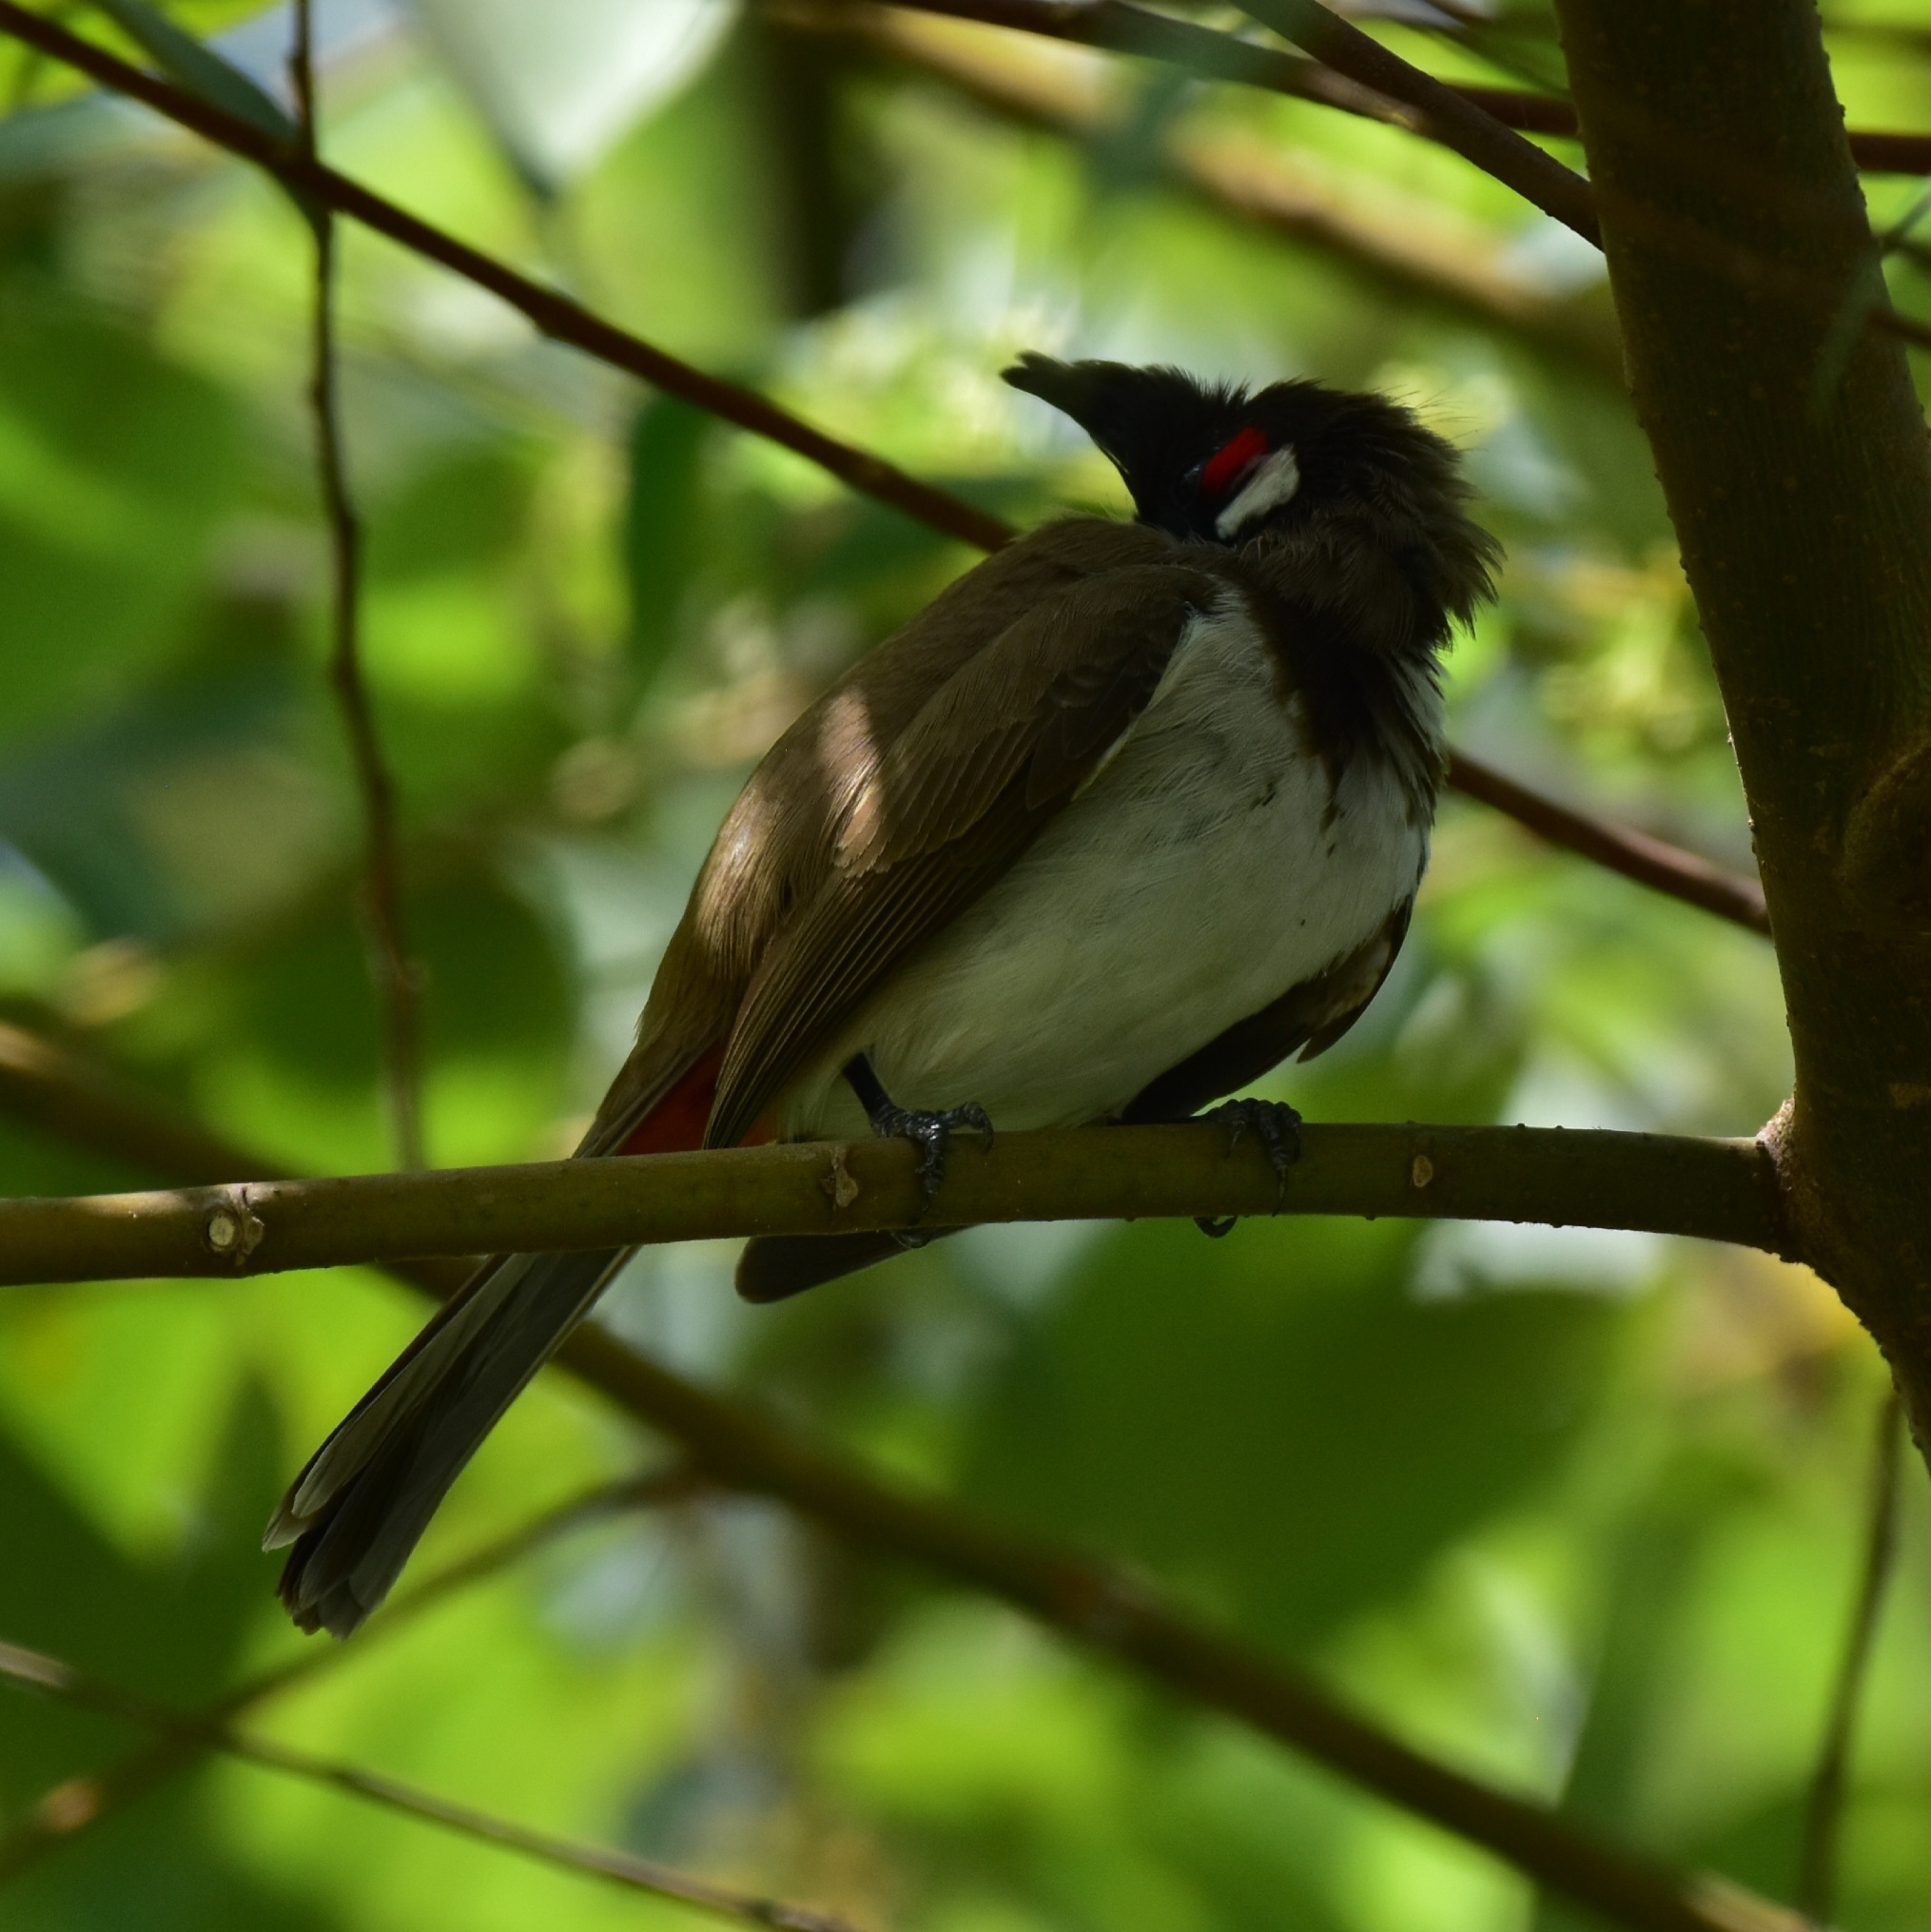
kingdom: Animalia
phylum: Chordata
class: Aves
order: Passeriformes
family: Pycnonotidae
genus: Pycnonotus
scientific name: Pycnonotus jocosus
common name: Red-whiskered bulbul
